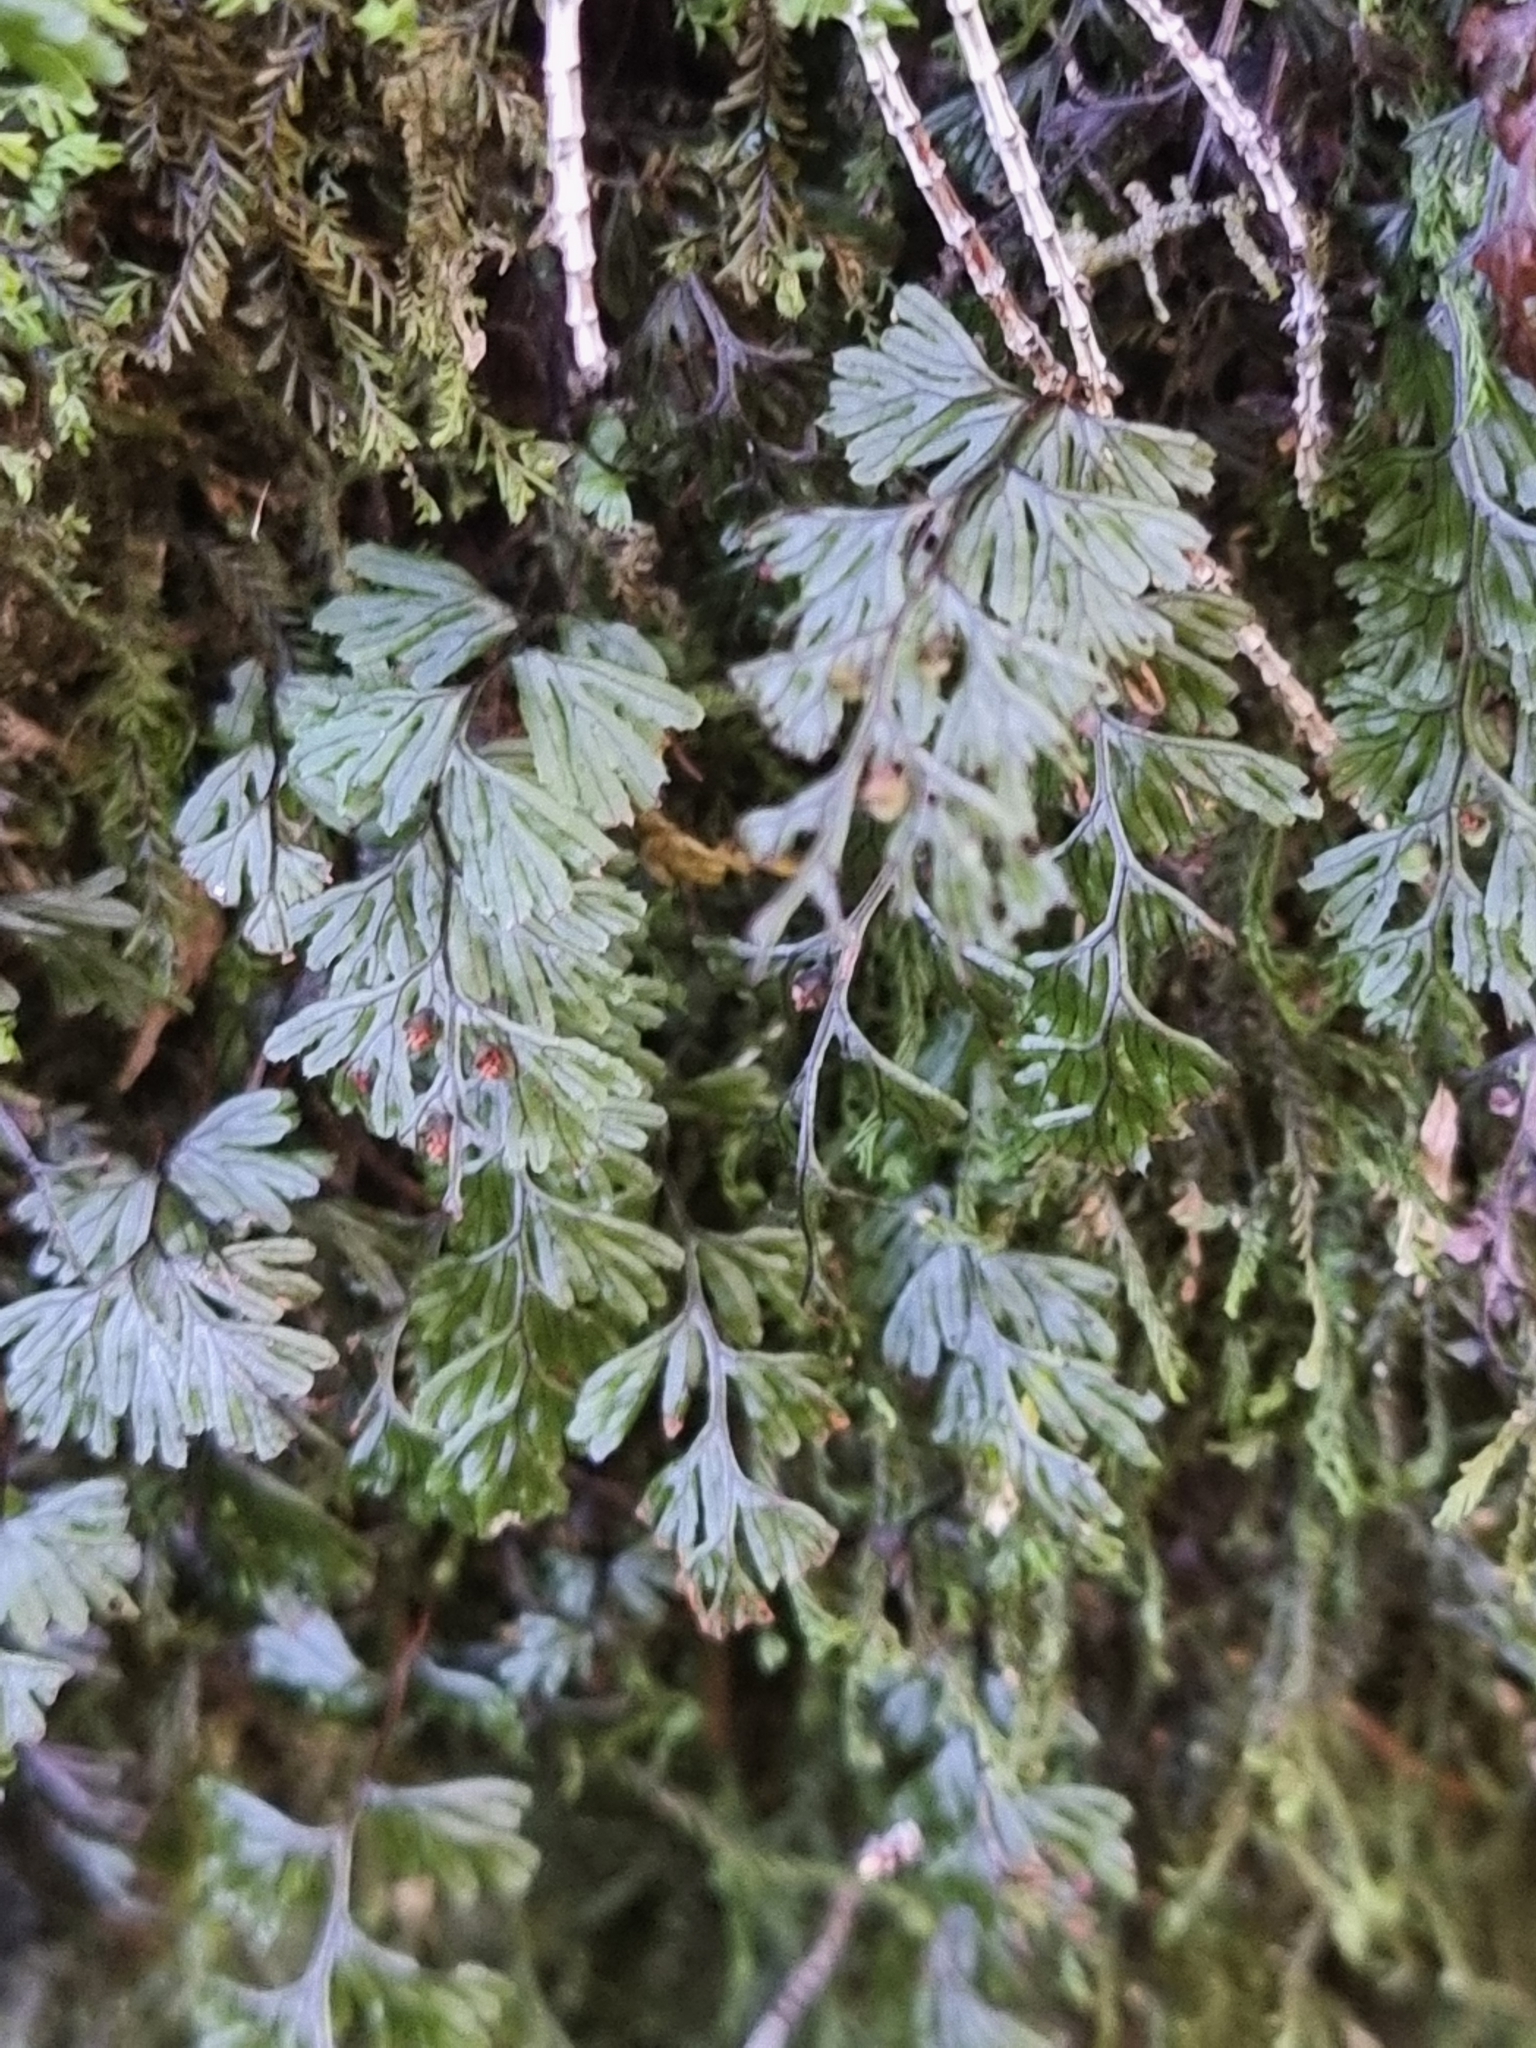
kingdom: Plantae
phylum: Tracheophyta
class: Polypodiopsida
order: Hymenophyllales
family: Hymenophyllaceae
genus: Hymenophyllum
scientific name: Hymenophyllum tunbrigense
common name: Tunbridge filmy fern
